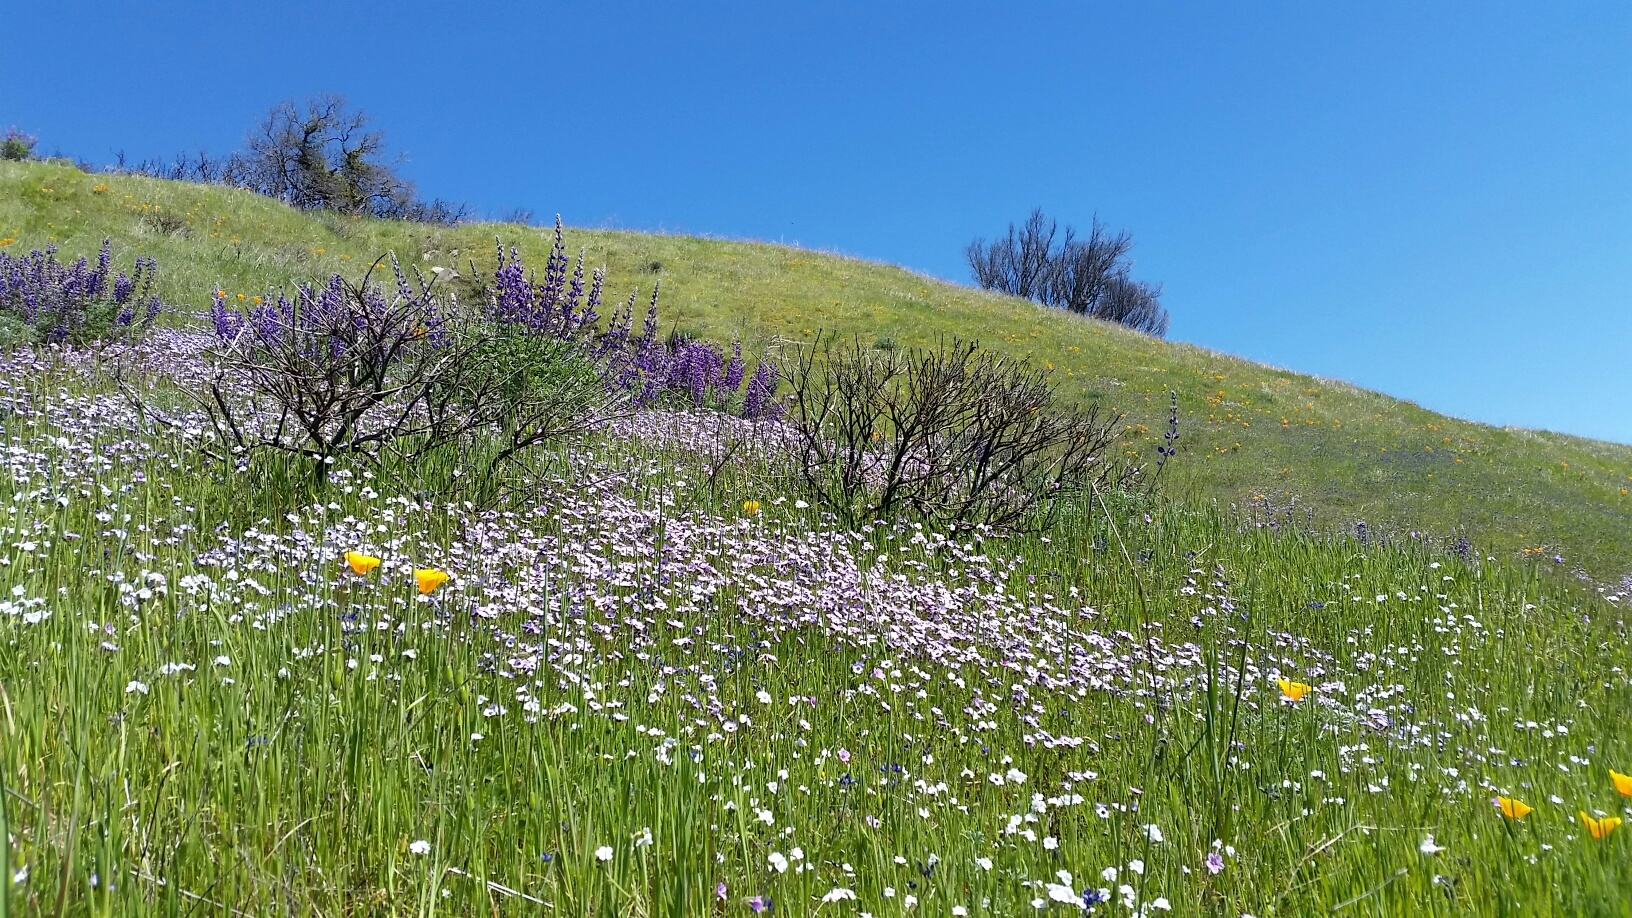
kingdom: Plantae
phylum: Tracheophyta
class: Magnoliopsida
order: Ericales
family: Polemoniaceae
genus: Gilia
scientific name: Gilia tricolor
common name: Bird's-eyes
